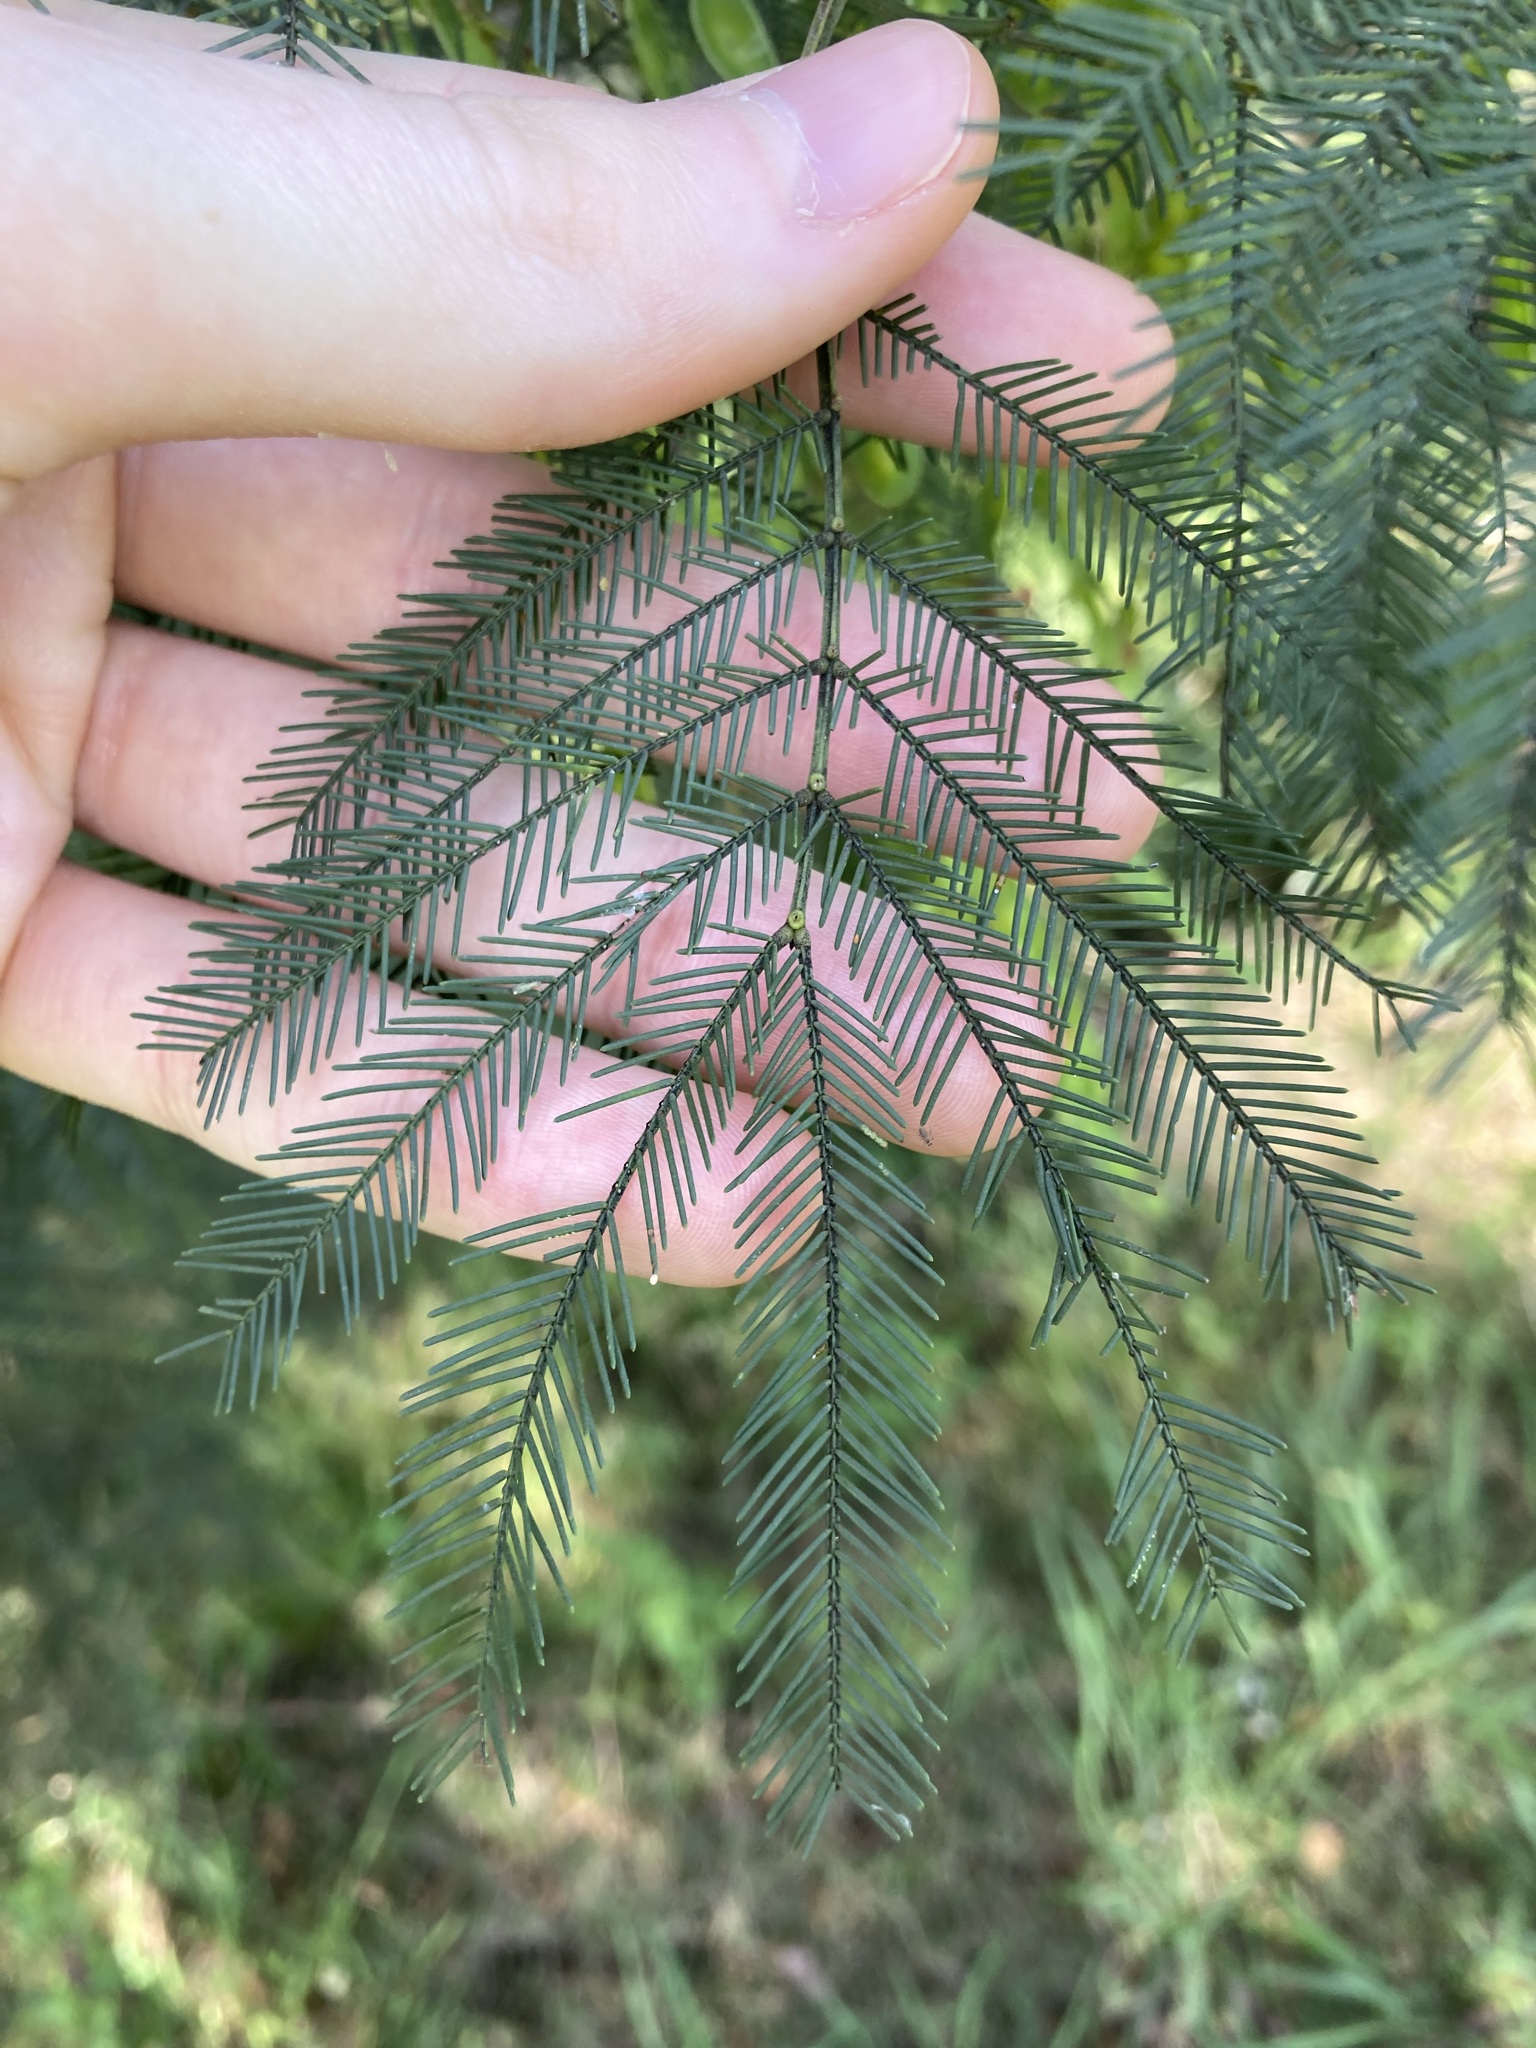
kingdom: Plantae
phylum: Tracheophyta
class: Magnoliopsida
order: Fabales
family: Fabaceae
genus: Acacia
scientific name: Acacia decurrens
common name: Green wattle
